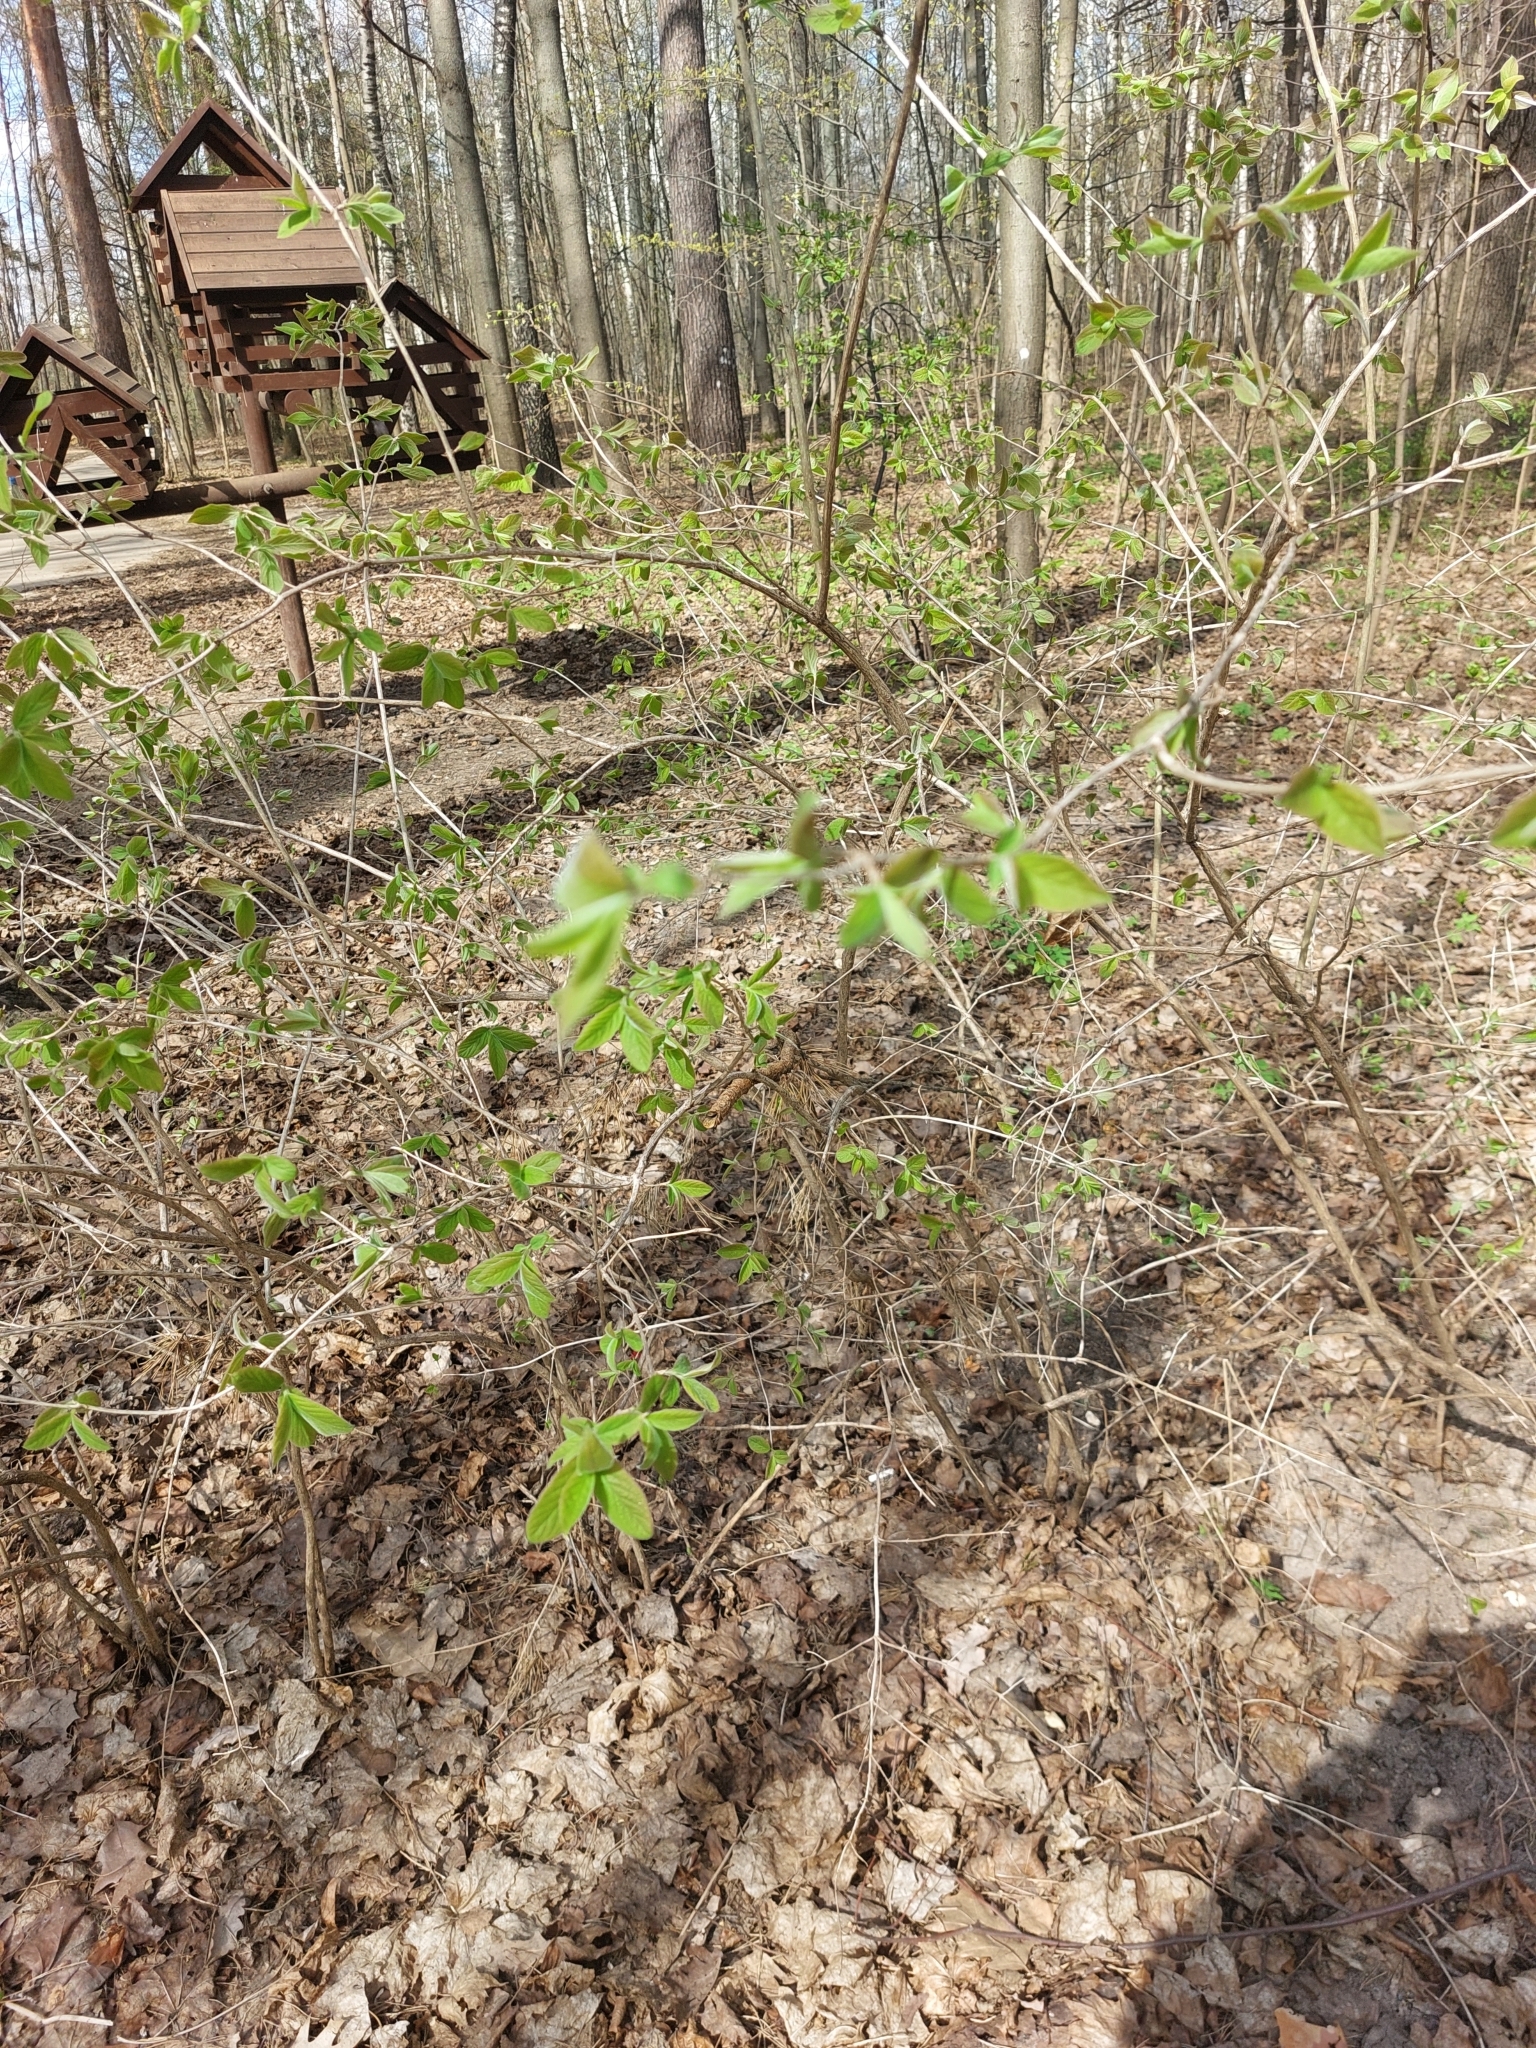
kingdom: Plantae
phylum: Tracheophyta
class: Magnoliopsida
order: Dipsacales
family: Caprifoliaceae
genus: Lonicera
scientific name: Lonicera xylosteum
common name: Fly honeysuckle
